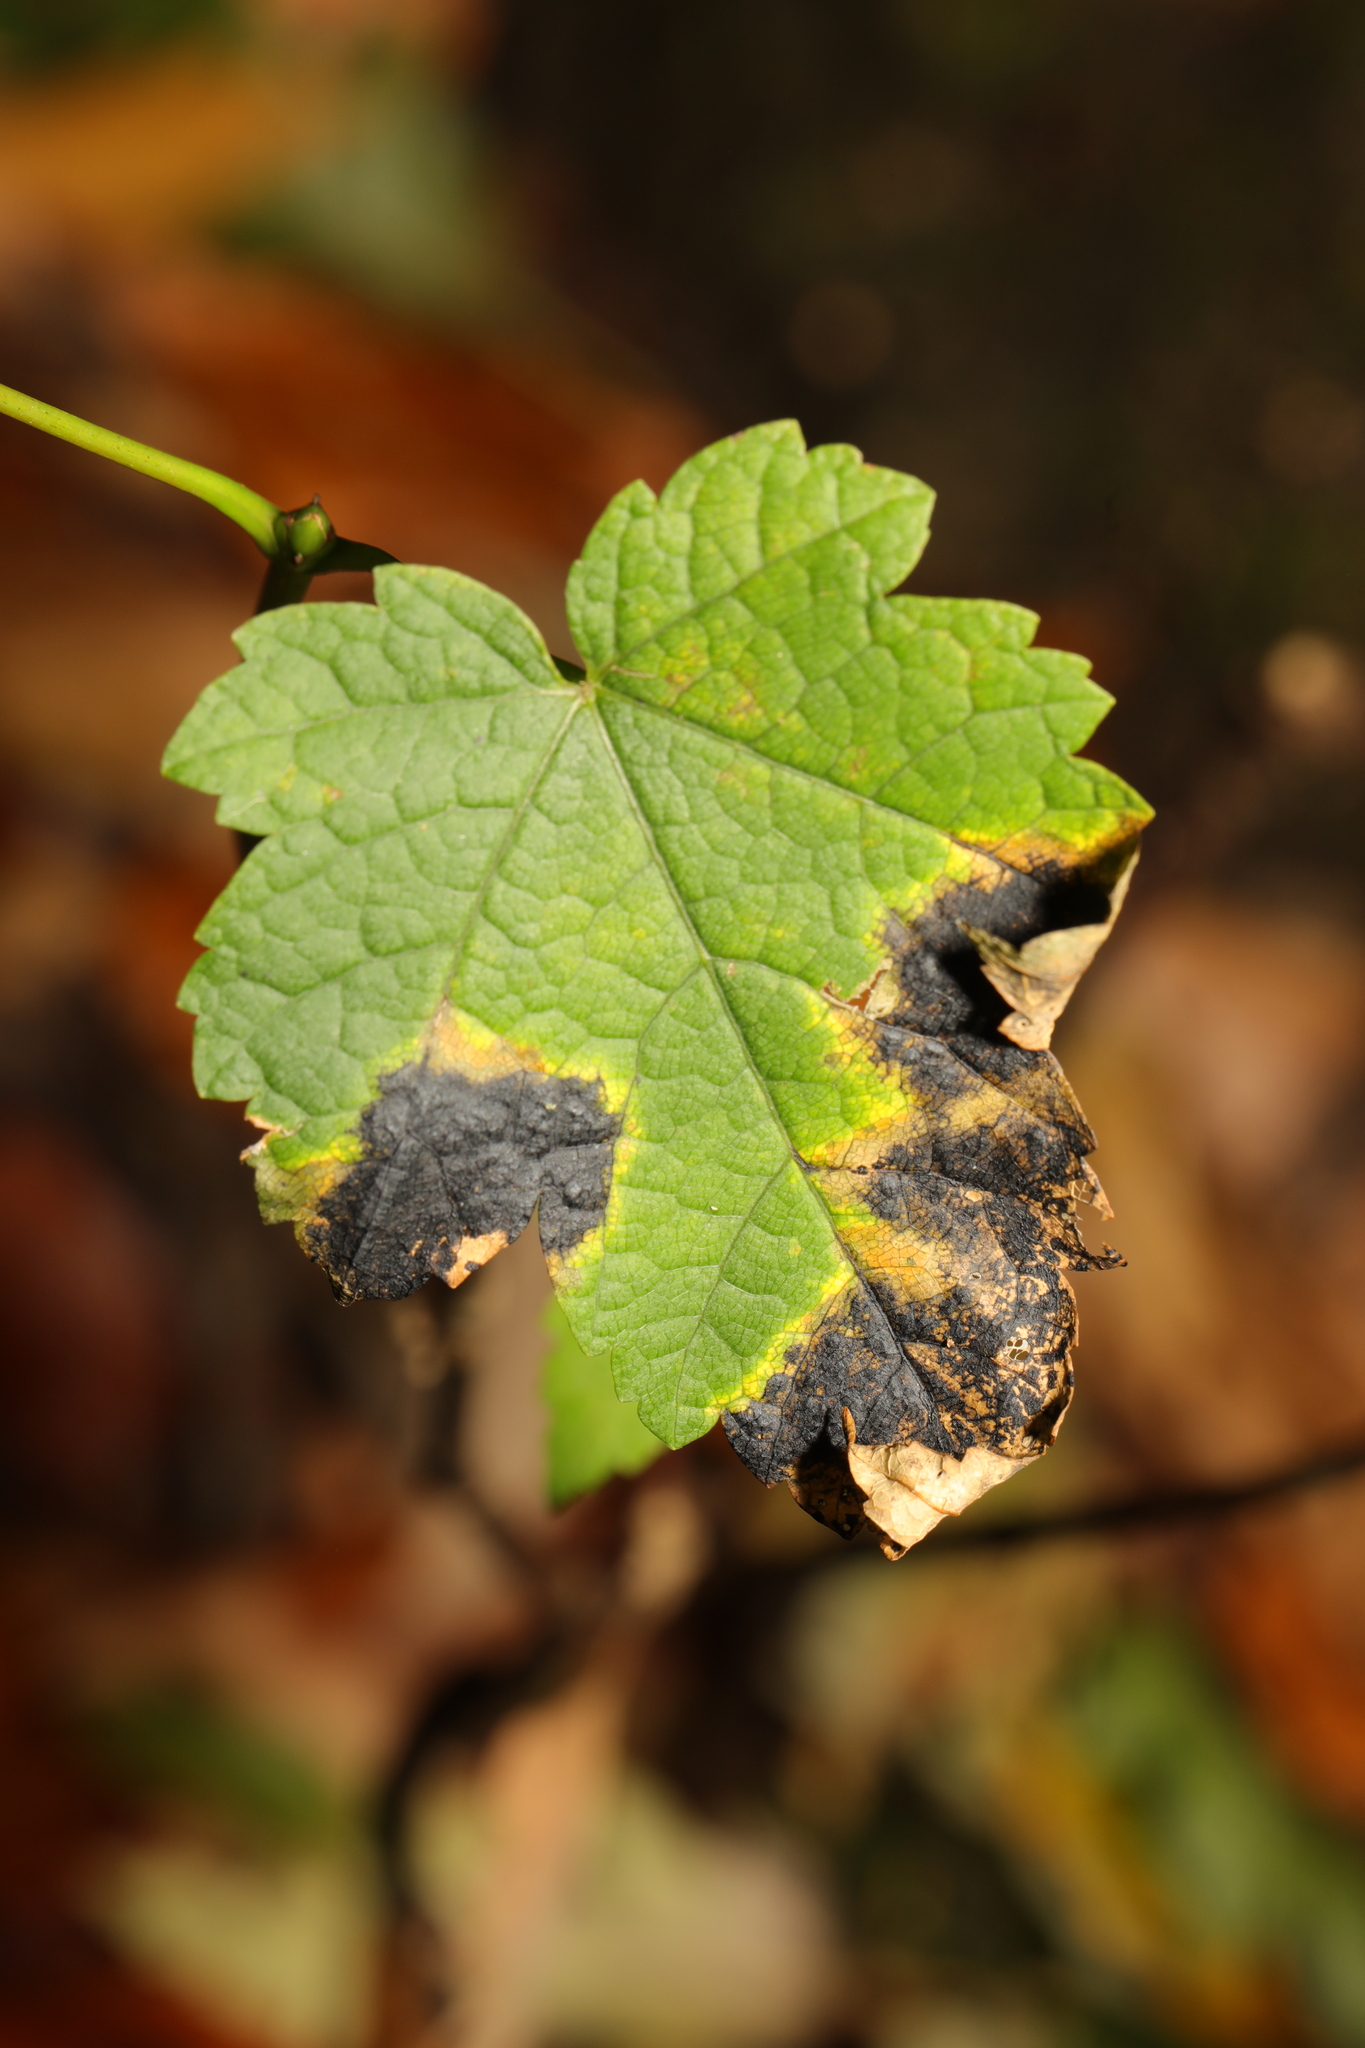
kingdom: Fungi
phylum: Ascomycota
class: Leotiomycetes
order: Rhytismatales
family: Rhytismataceae
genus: Rhytisma
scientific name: Rhytisma acerinum
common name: European tar spot
